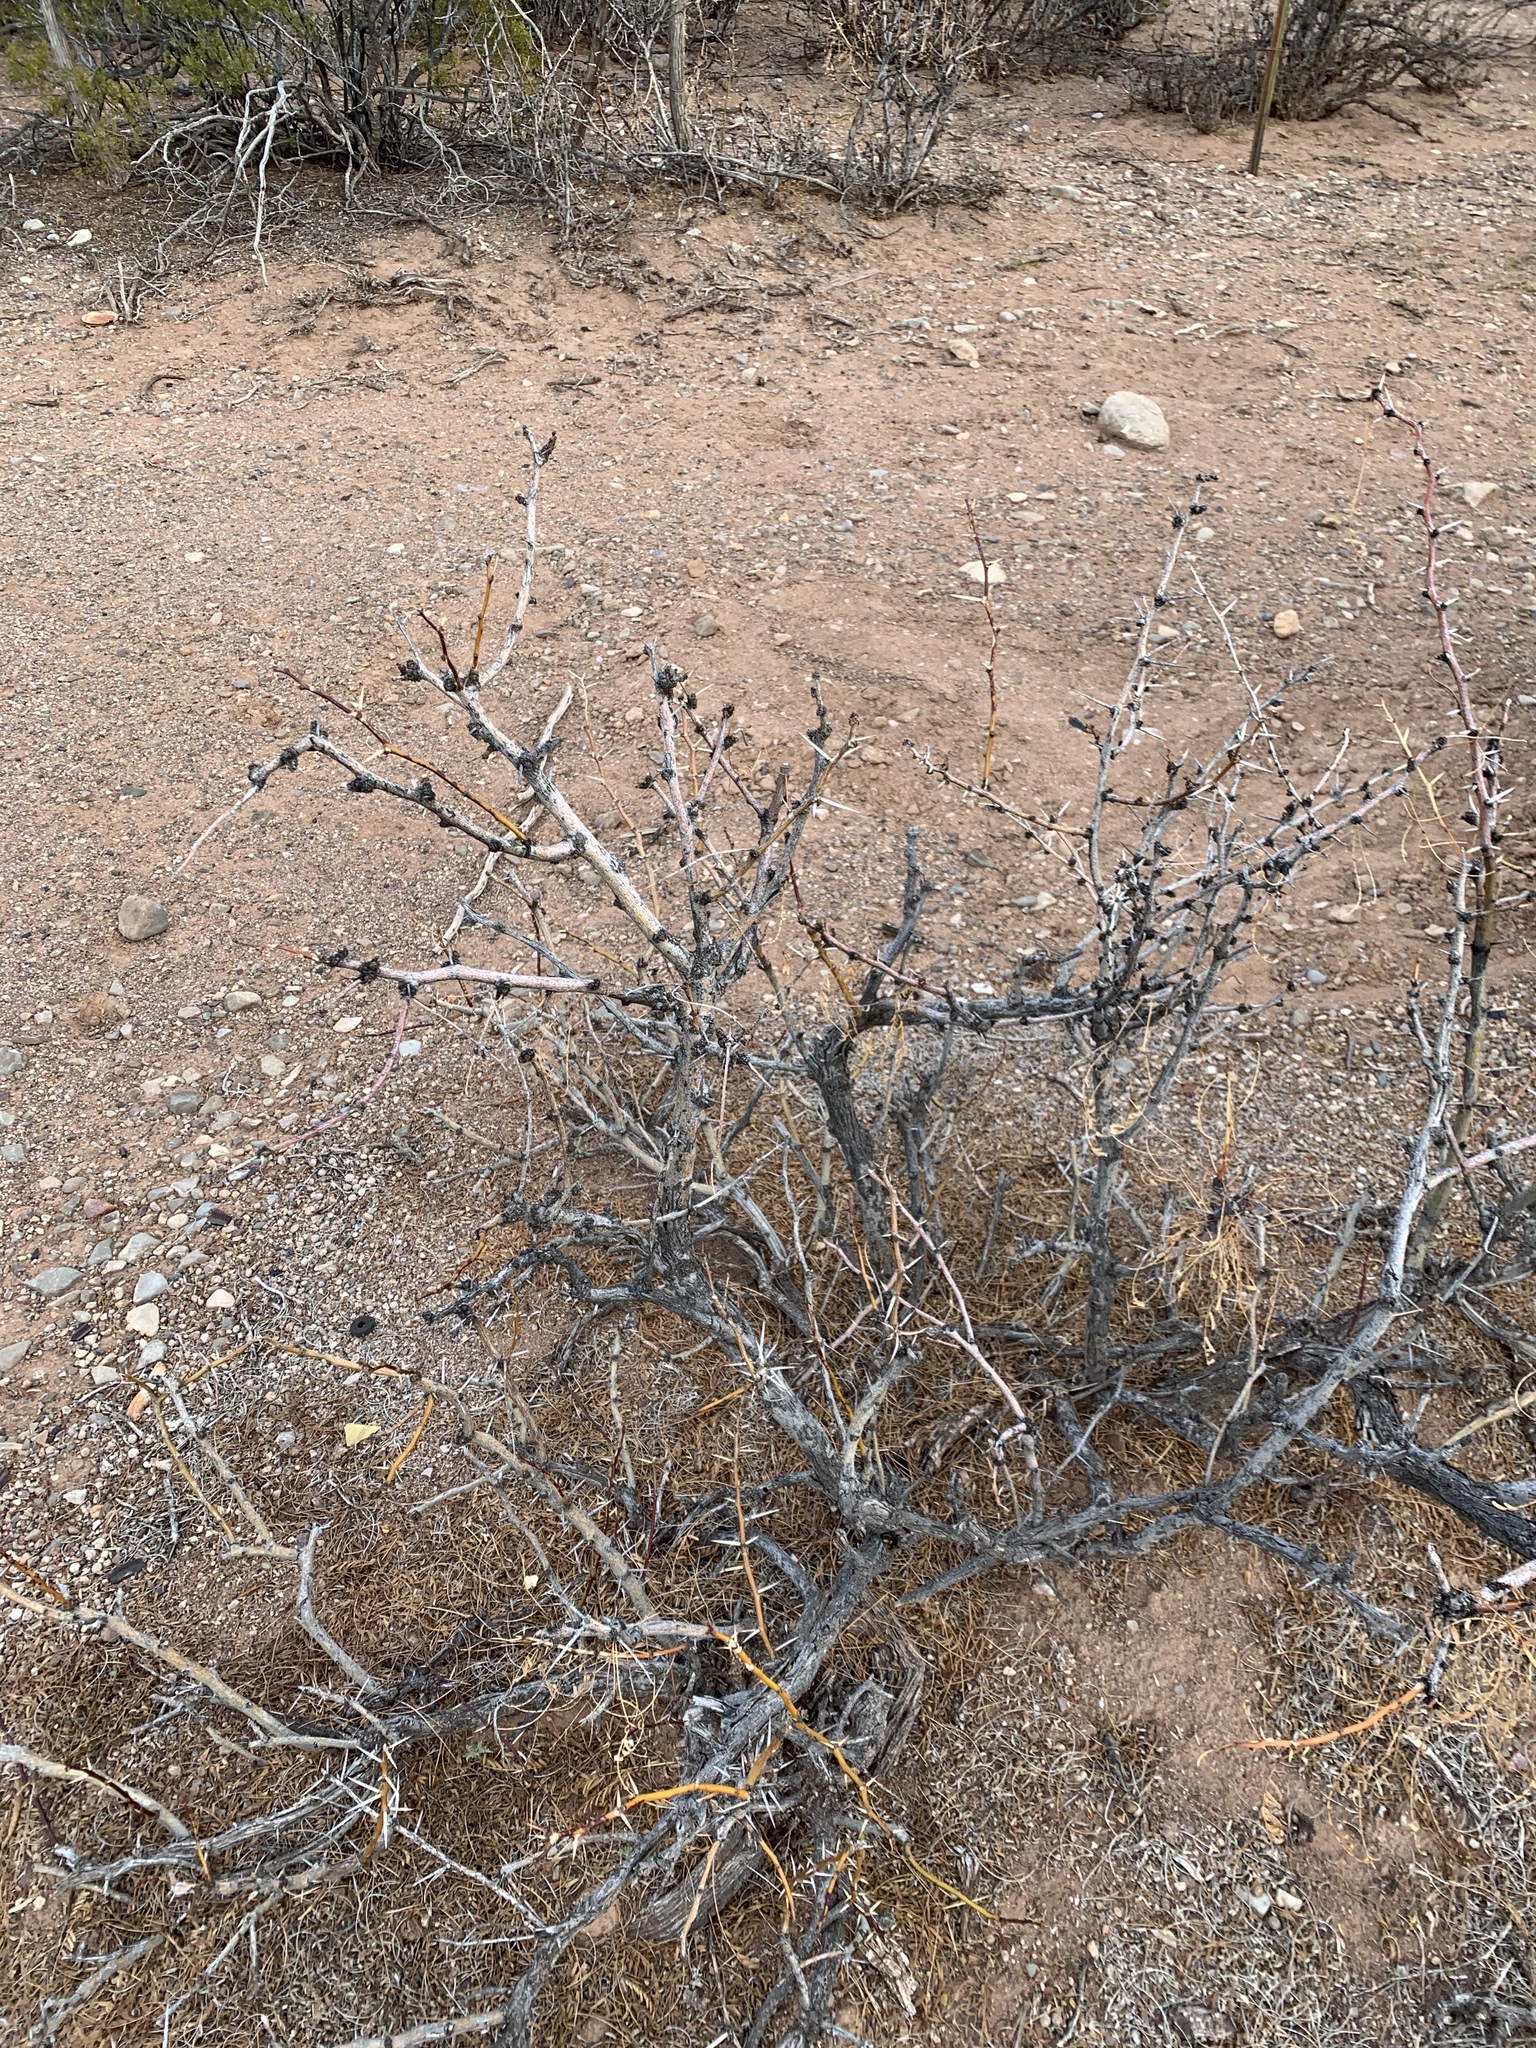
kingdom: Plantae
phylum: Tracheophyta
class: Magnoliopsida
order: Fabales
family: Fabaceae
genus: Prosopis
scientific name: Prosopis glandulosa
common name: Honey mesquite
